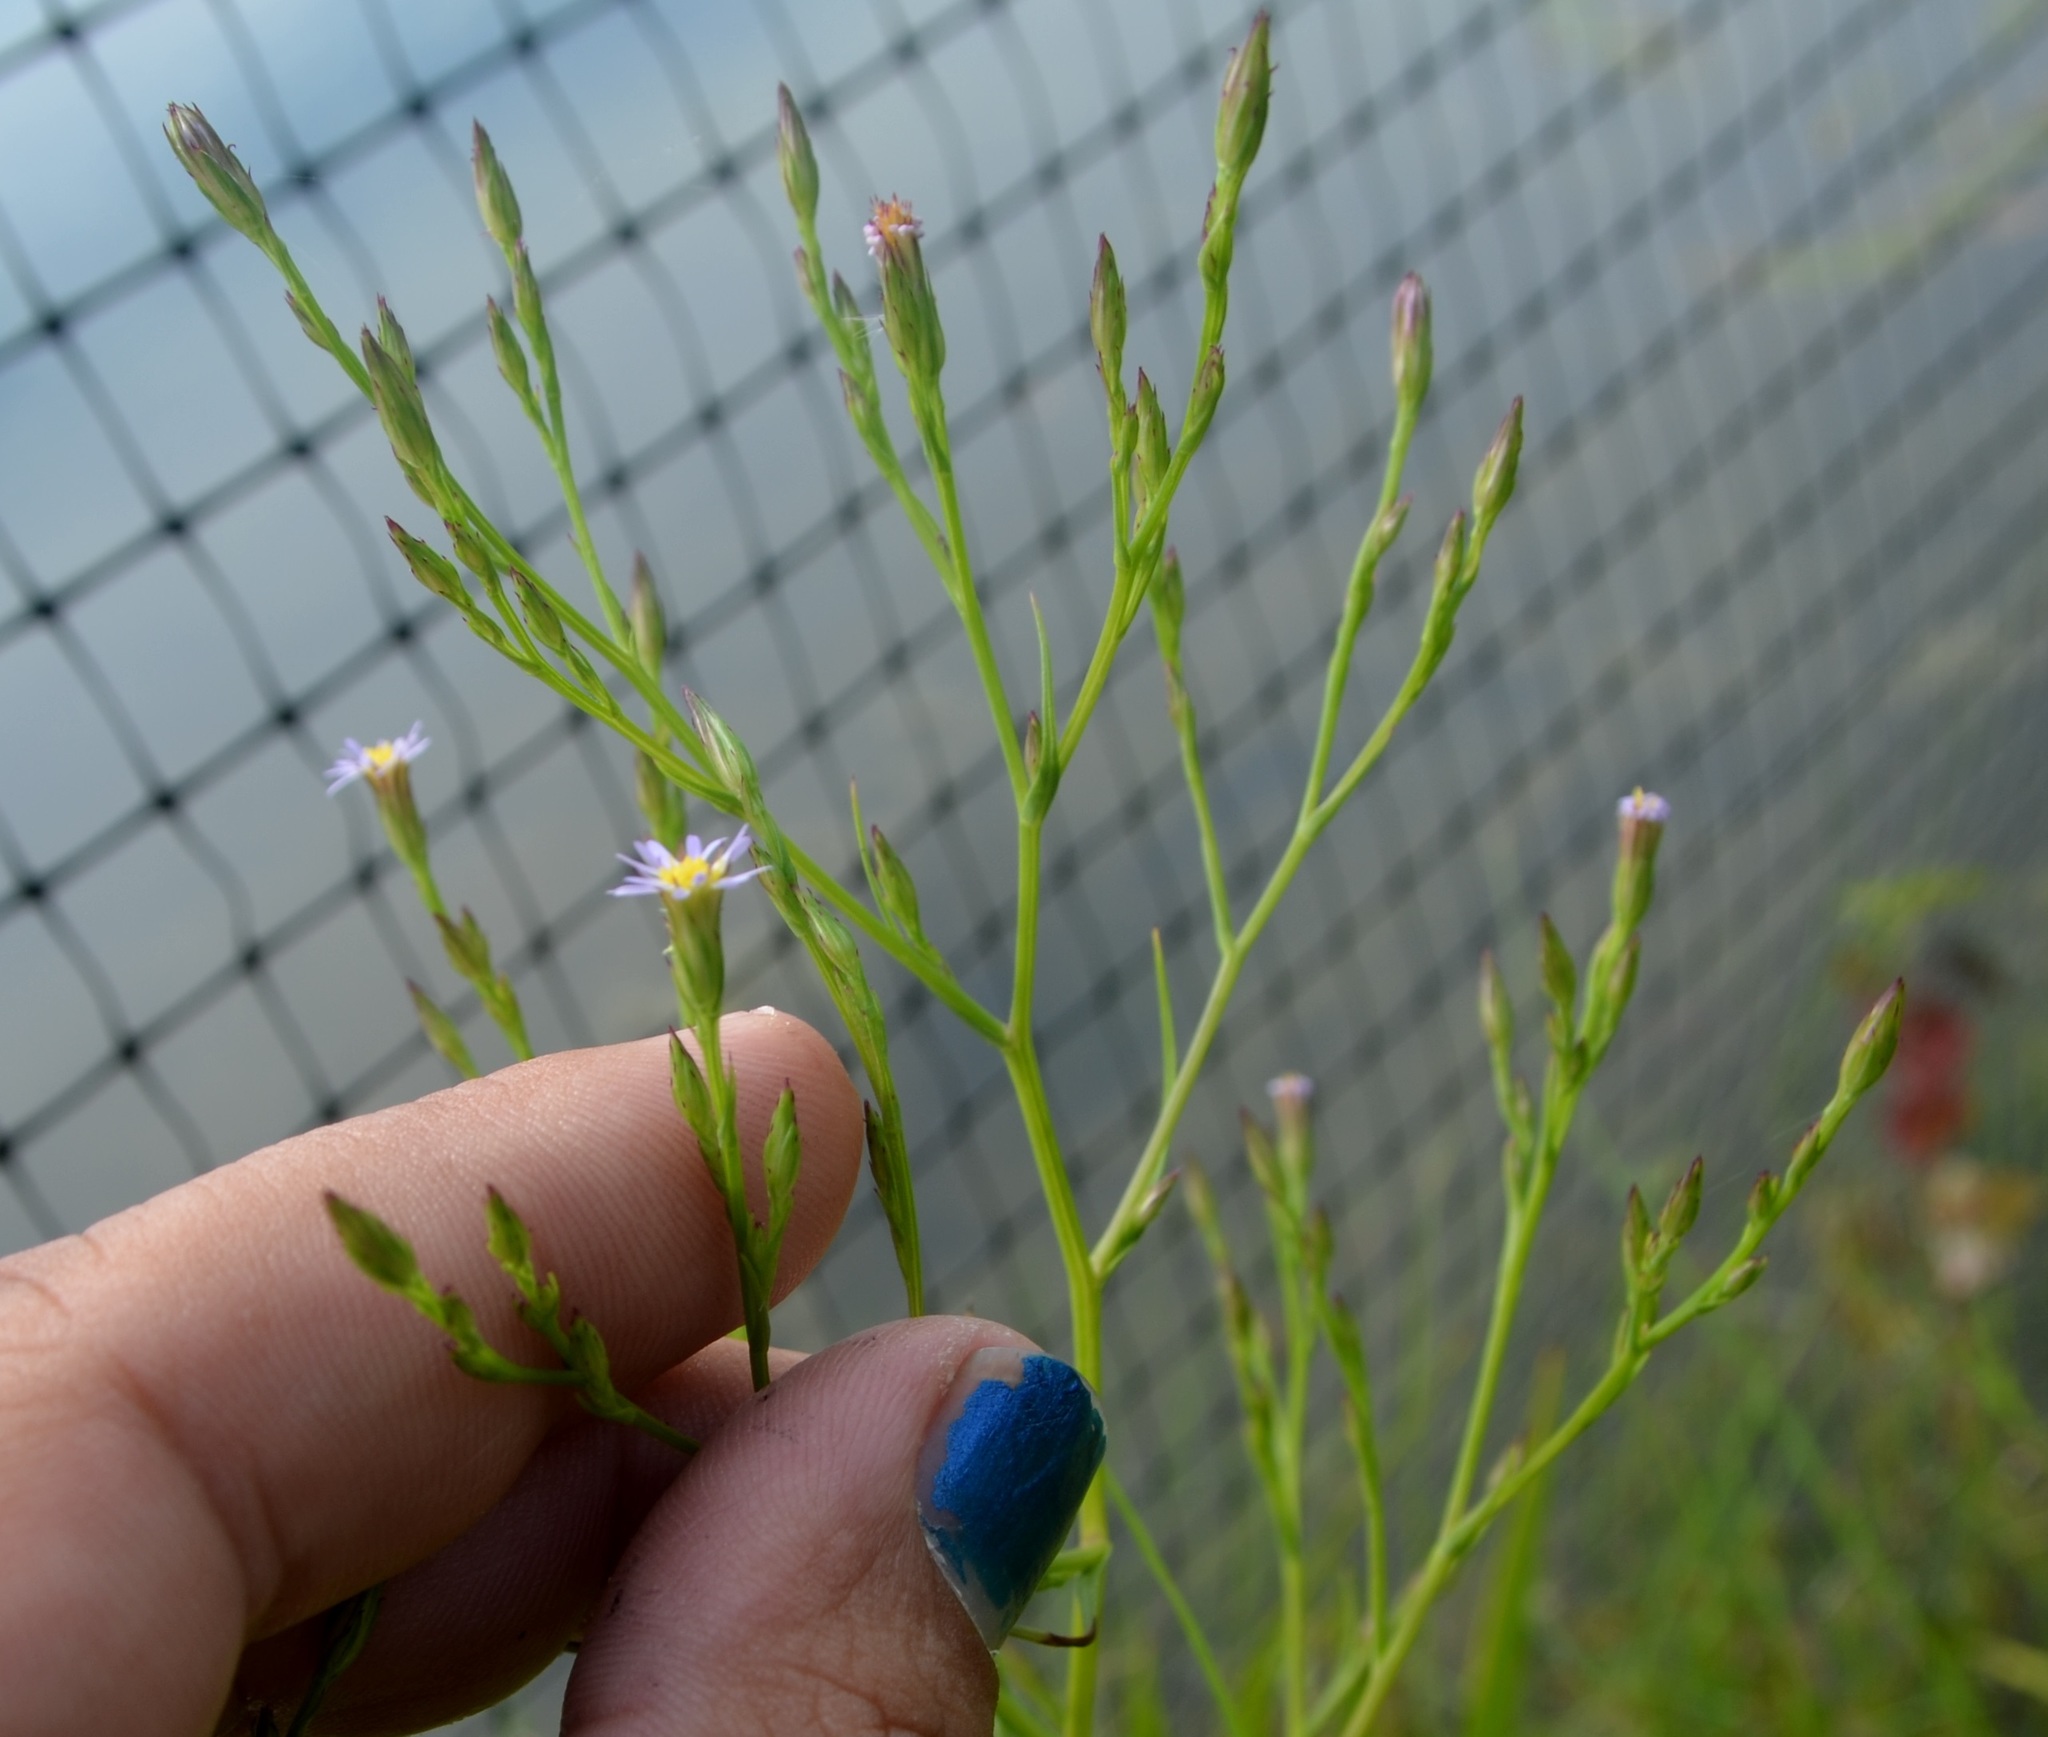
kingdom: Plantae
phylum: Tracheophyta
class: Magnoliopsida
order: Asterales
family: Asteraceae
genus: Symphyotrichum
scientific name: Symphyotrichum subulatum
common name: Annual saltmarsh aster
